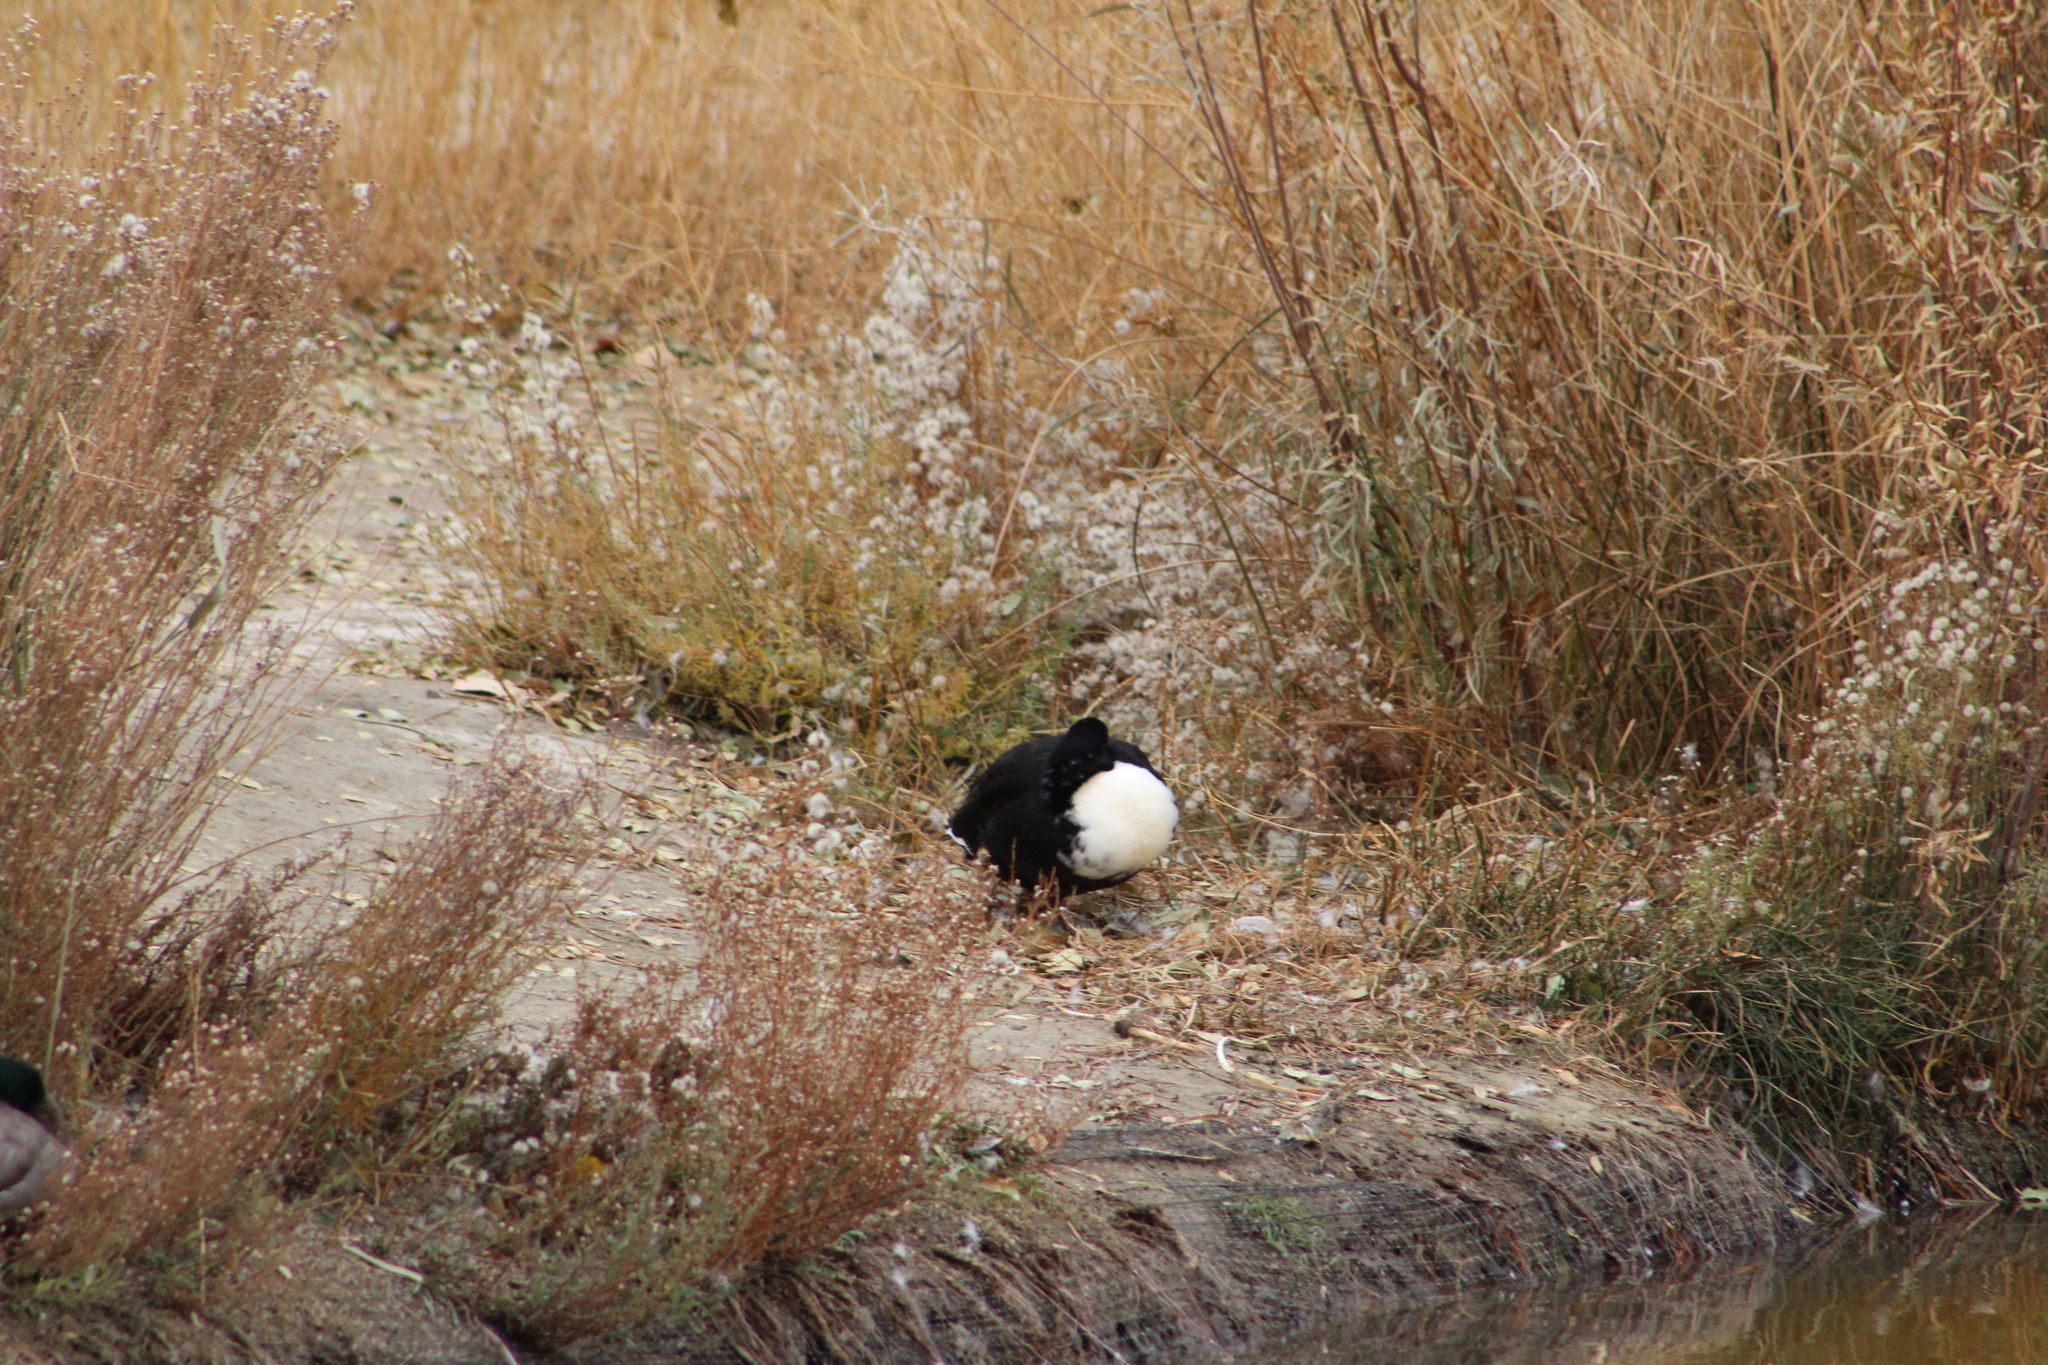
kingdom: Animalia
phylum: Chordata
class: Aves
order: Anseriformes
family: Anatidae
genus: Anas
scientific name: Anas platyrhynchos
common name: Mallard
